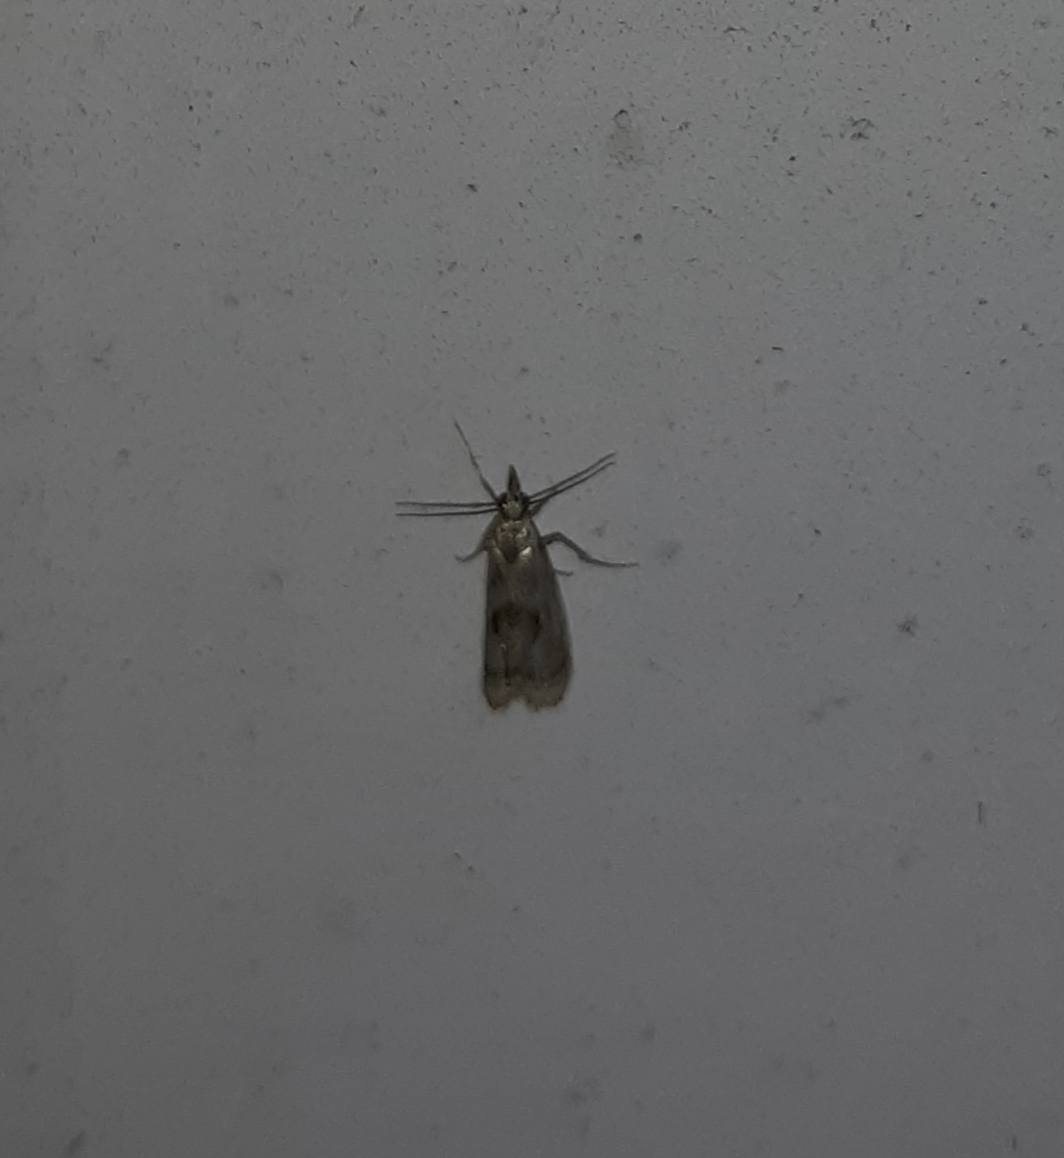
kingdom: Animalia
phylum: Arthropoda
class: Insecta
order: Lepidoptera
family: Crambidae
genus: Microcrambus
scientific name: Microcrambus elegans
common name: Elegant grass-veneer
